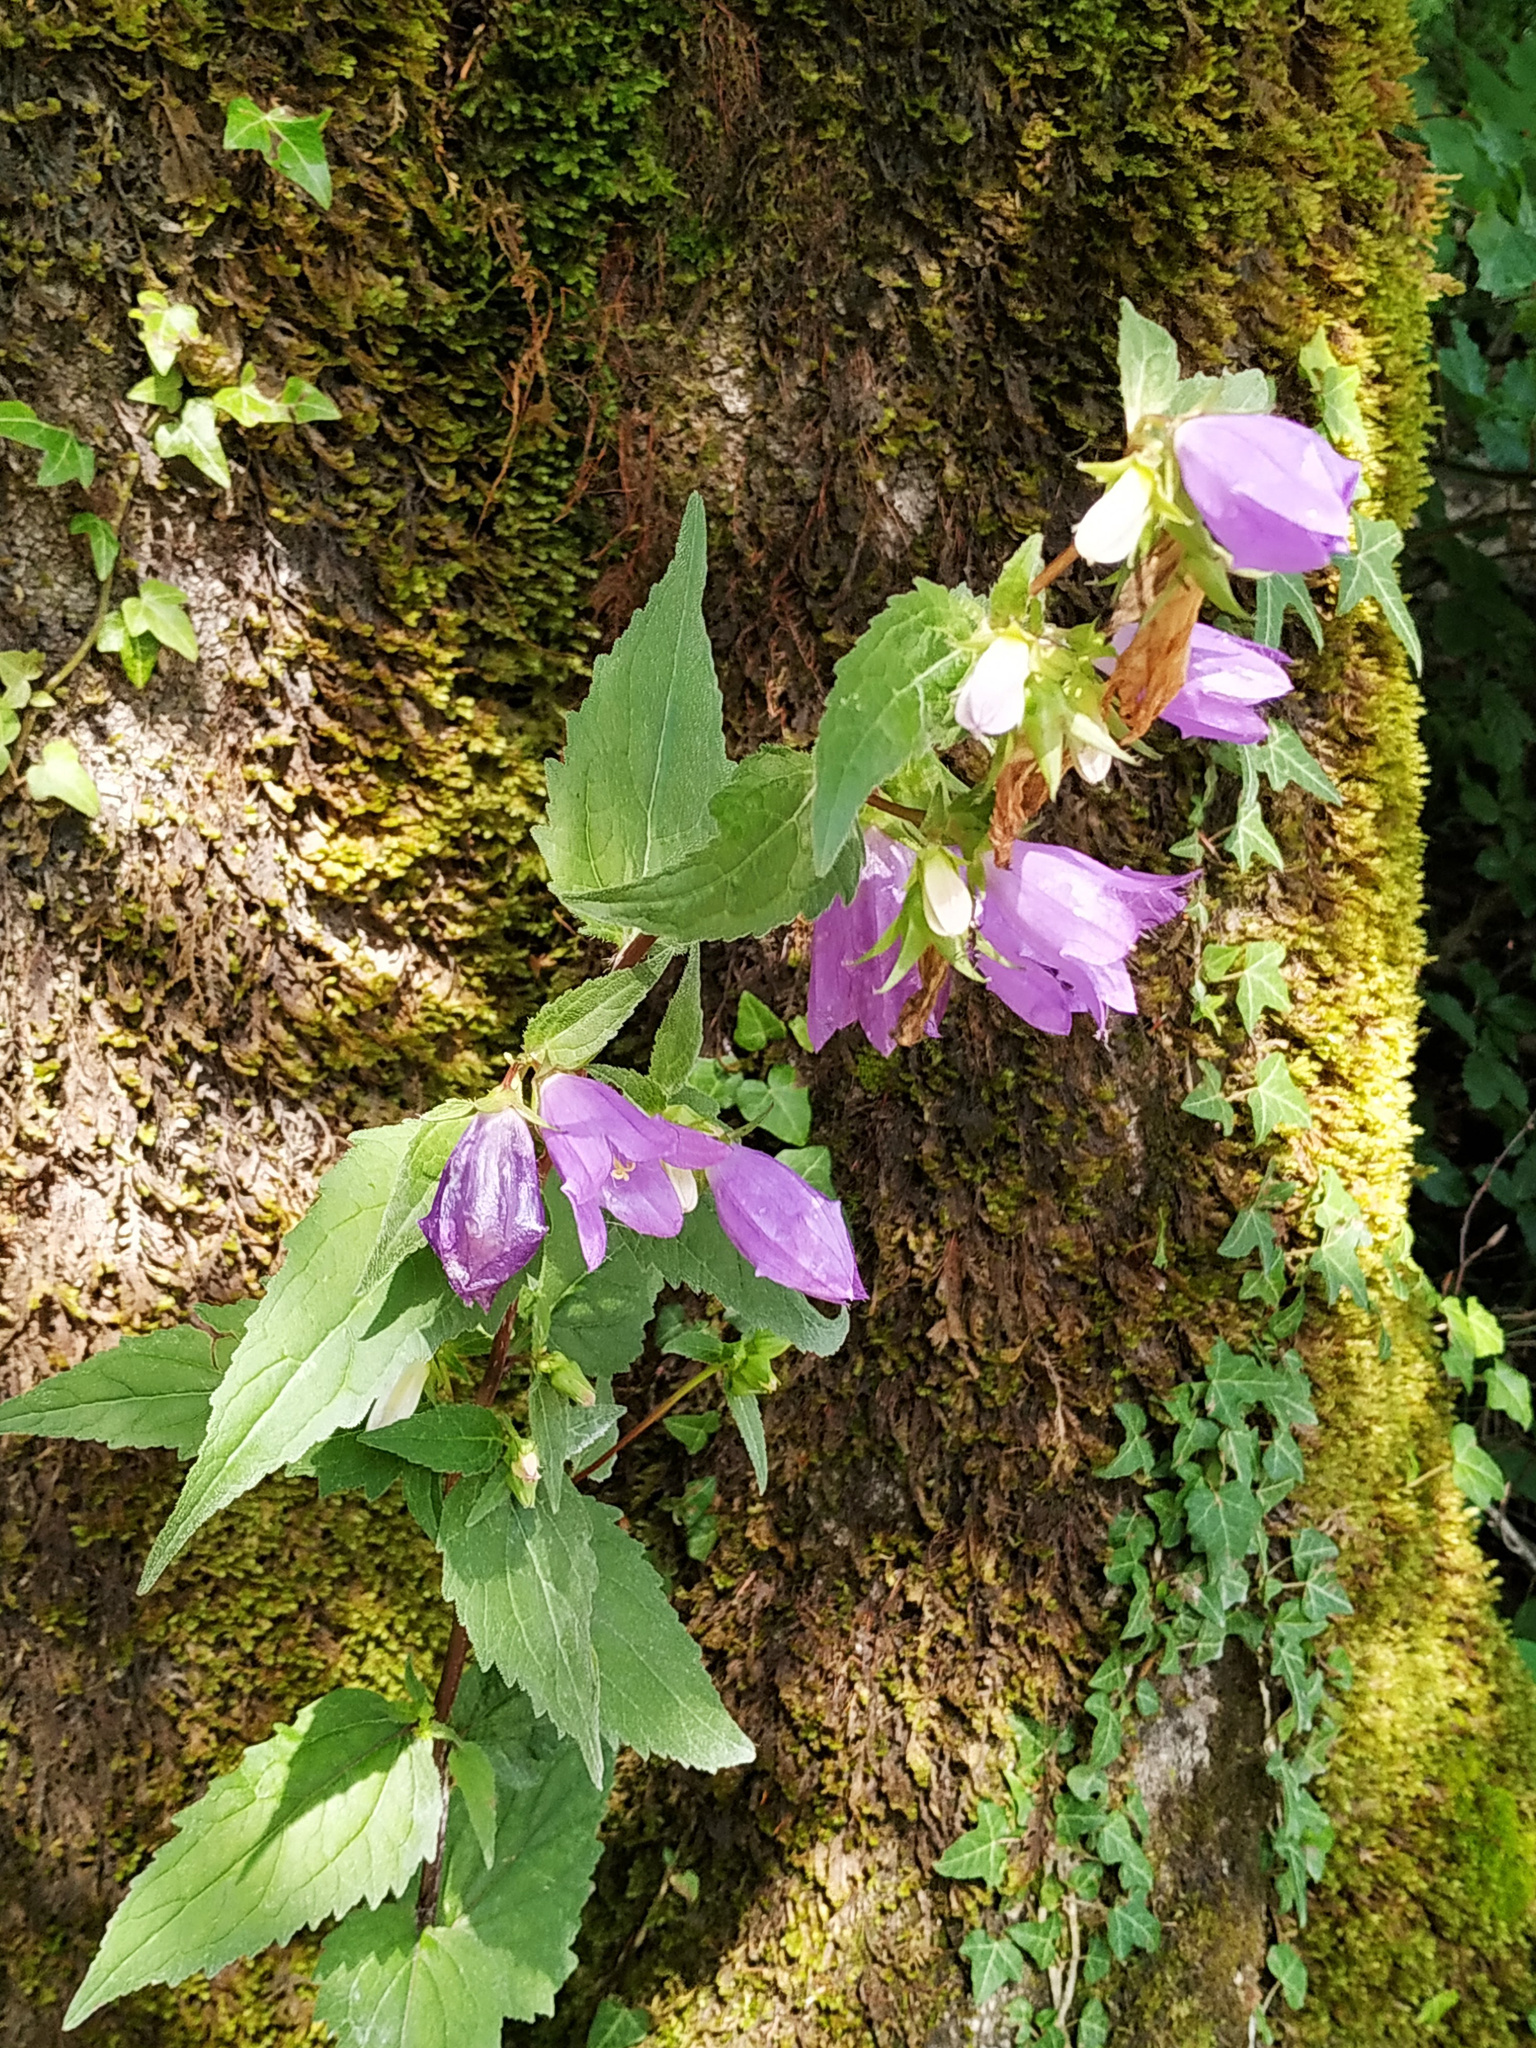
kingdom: Plantae
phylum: Tracheophyta
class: Magnoliopsida
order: Asterales
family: Campanulaceae
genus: Campanula
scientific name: Campanula trachelium
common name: Nettle-leaved bellflower
